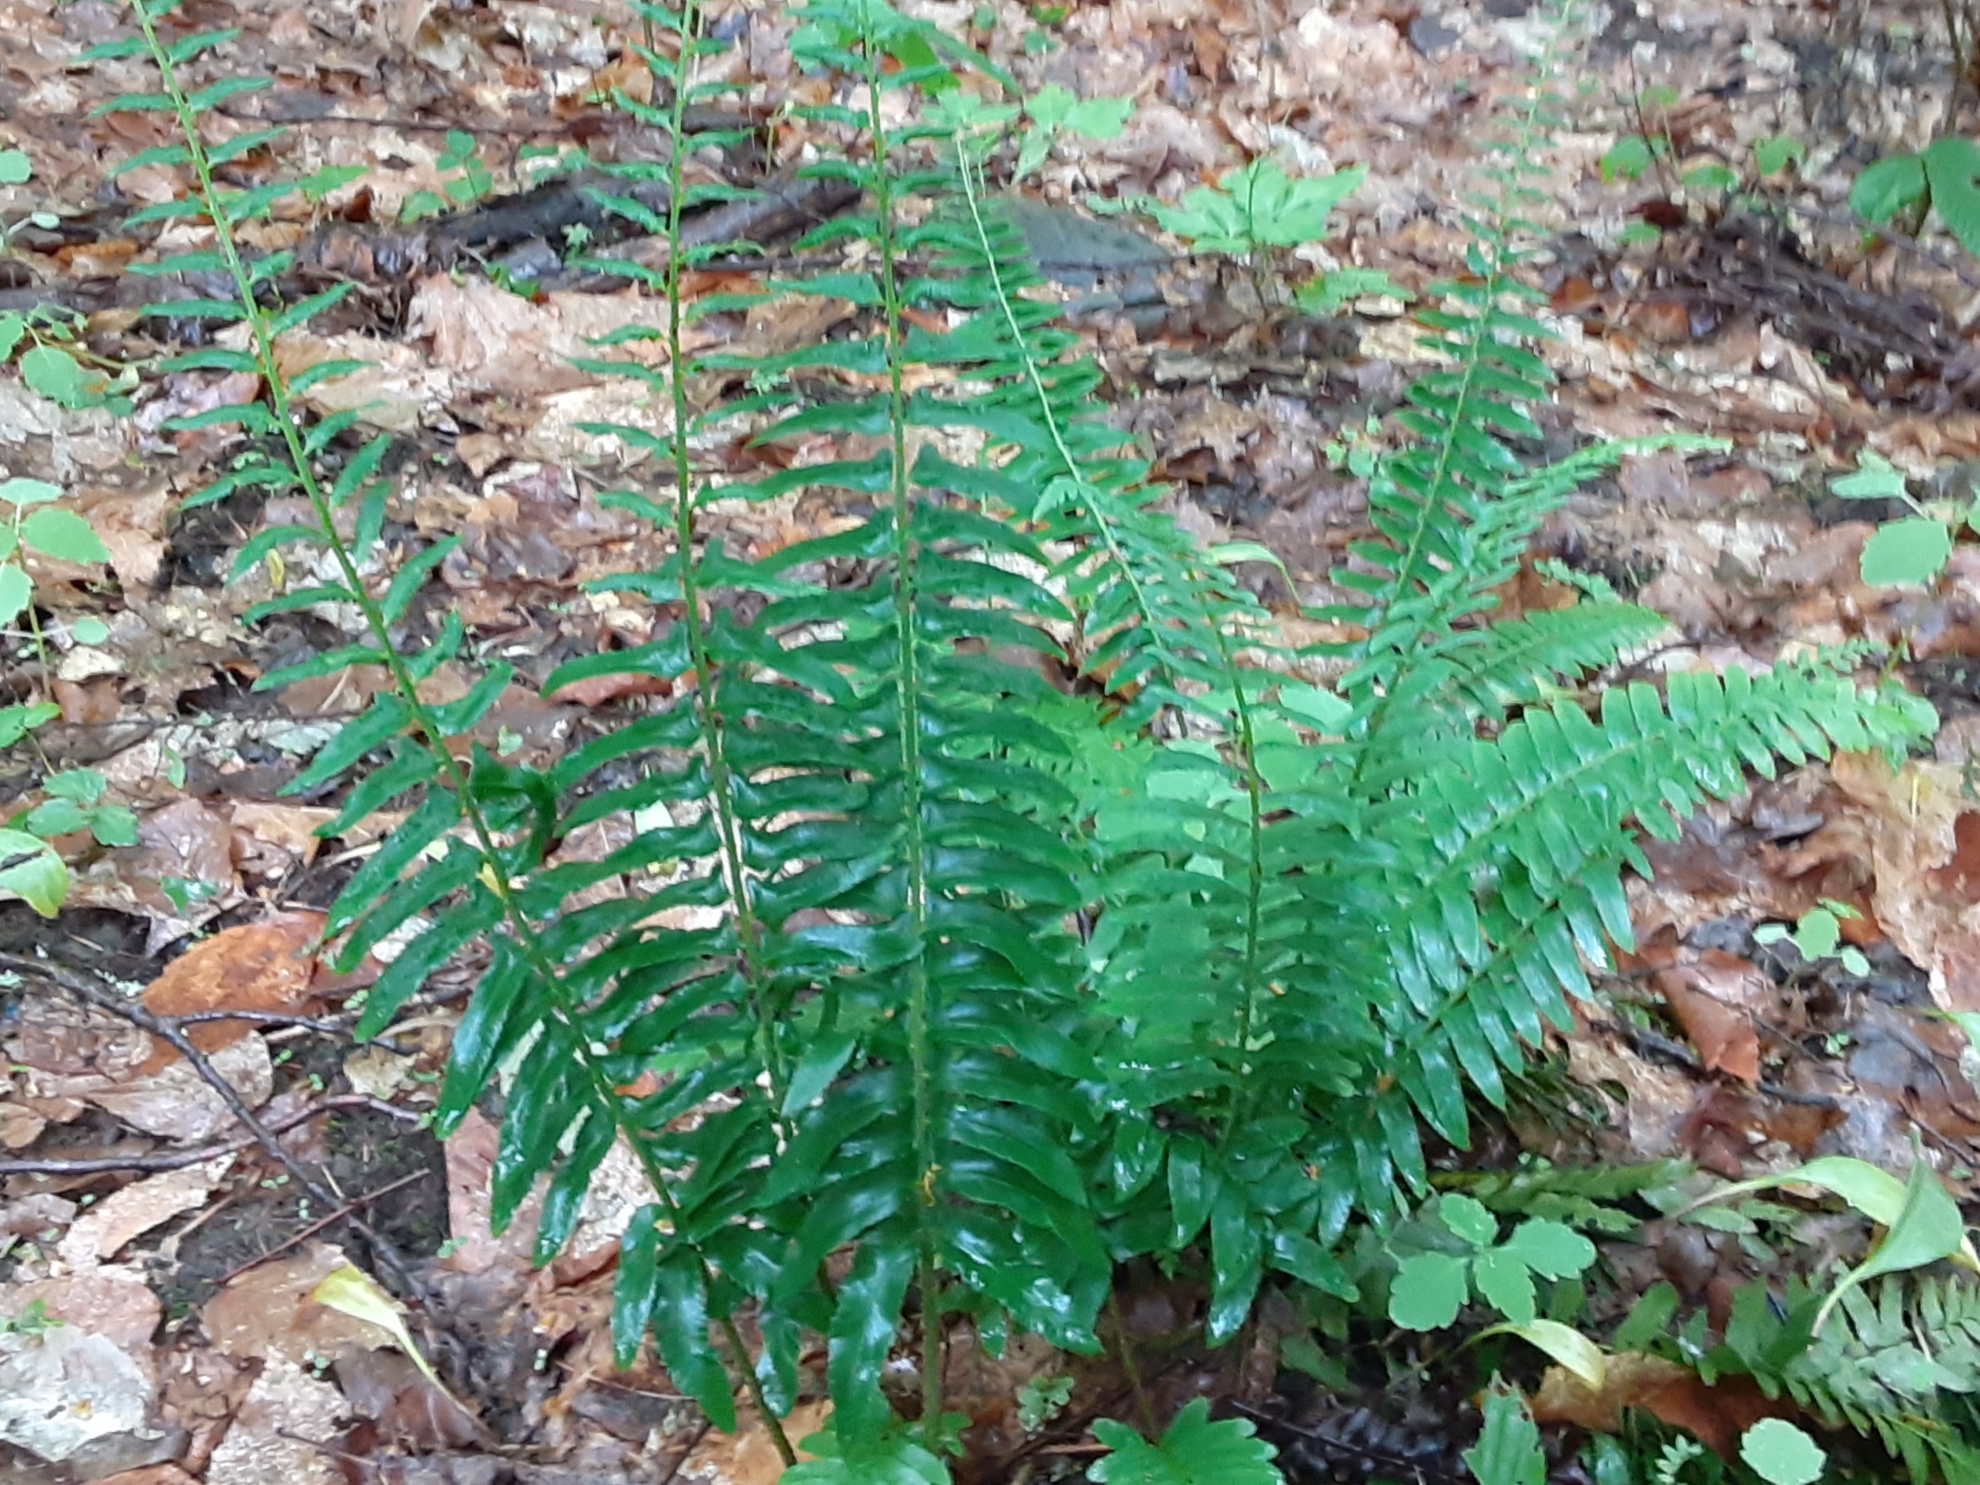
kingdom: Plantae
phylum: Tracheophyta
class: Polypodiopsida
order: Polypodiales
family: Dryopteridaceae
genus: Polystichum
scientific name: Polystichum acrostichoides
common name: Christmas fern
